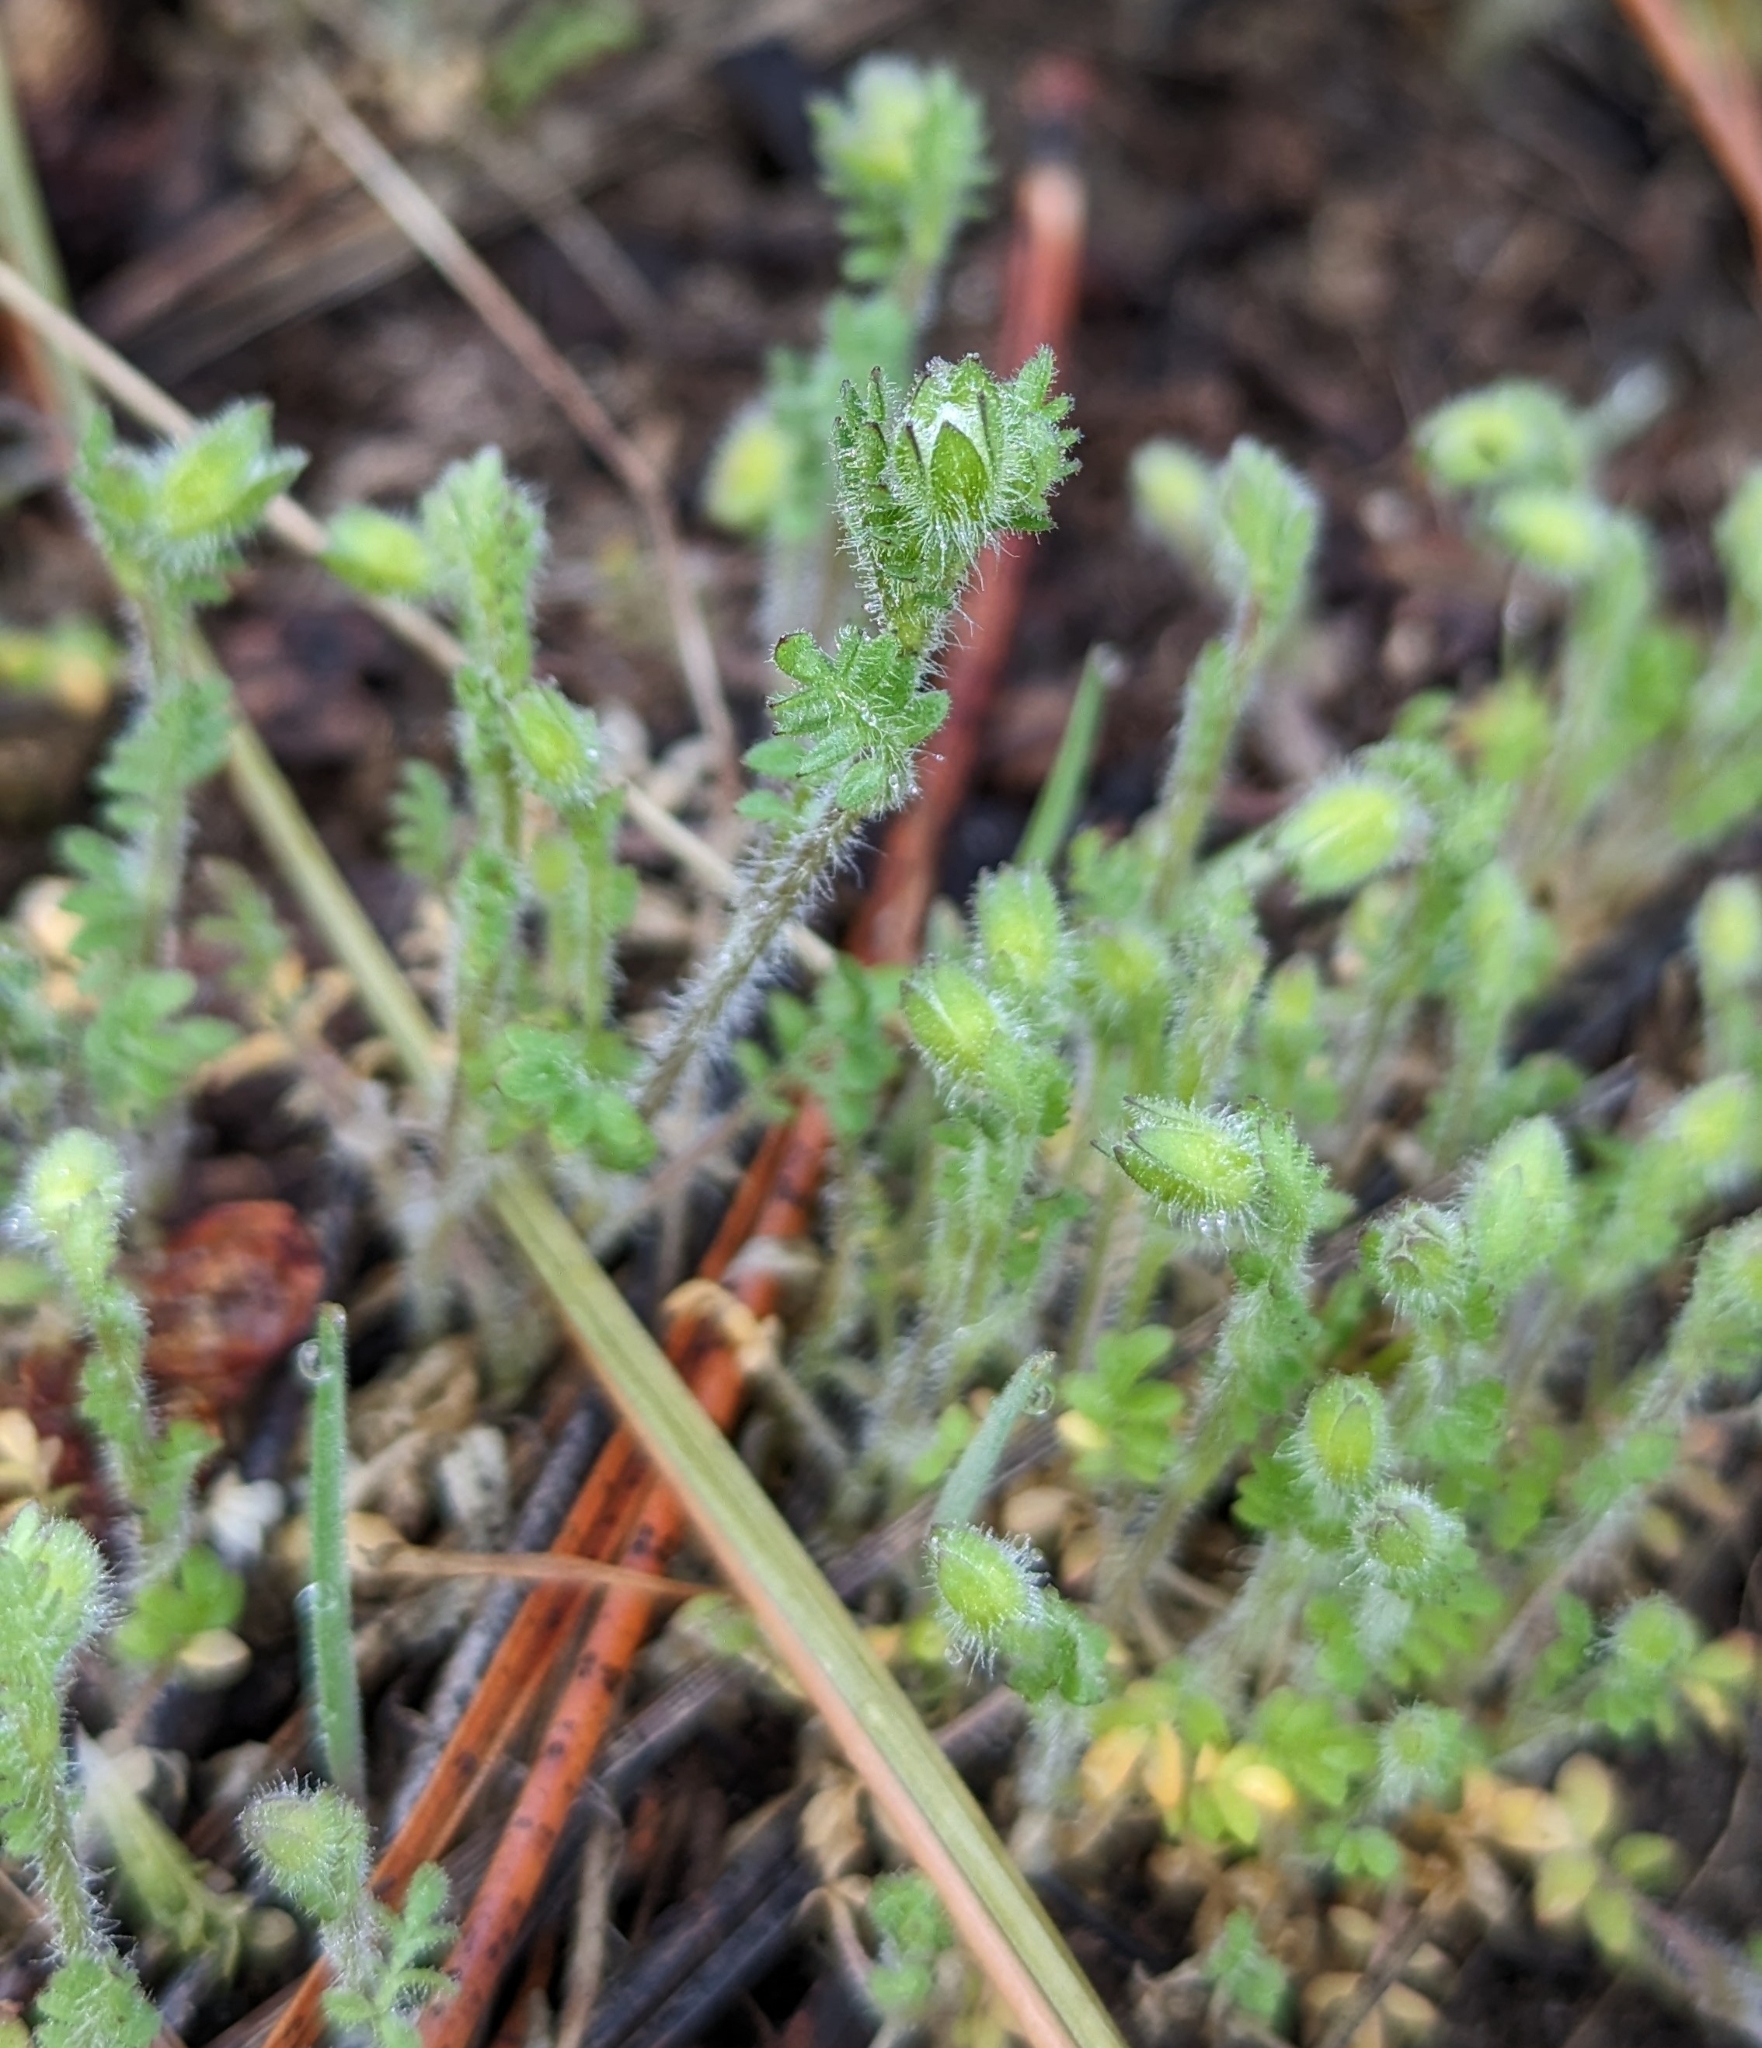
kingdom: Plantae
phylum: Tracheophyta
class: Magnoliopsida
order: Ericales
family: Polemoniaceae
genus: Polemonium
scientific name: Polemonium micranthum
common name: Annual jacob's-ladder
